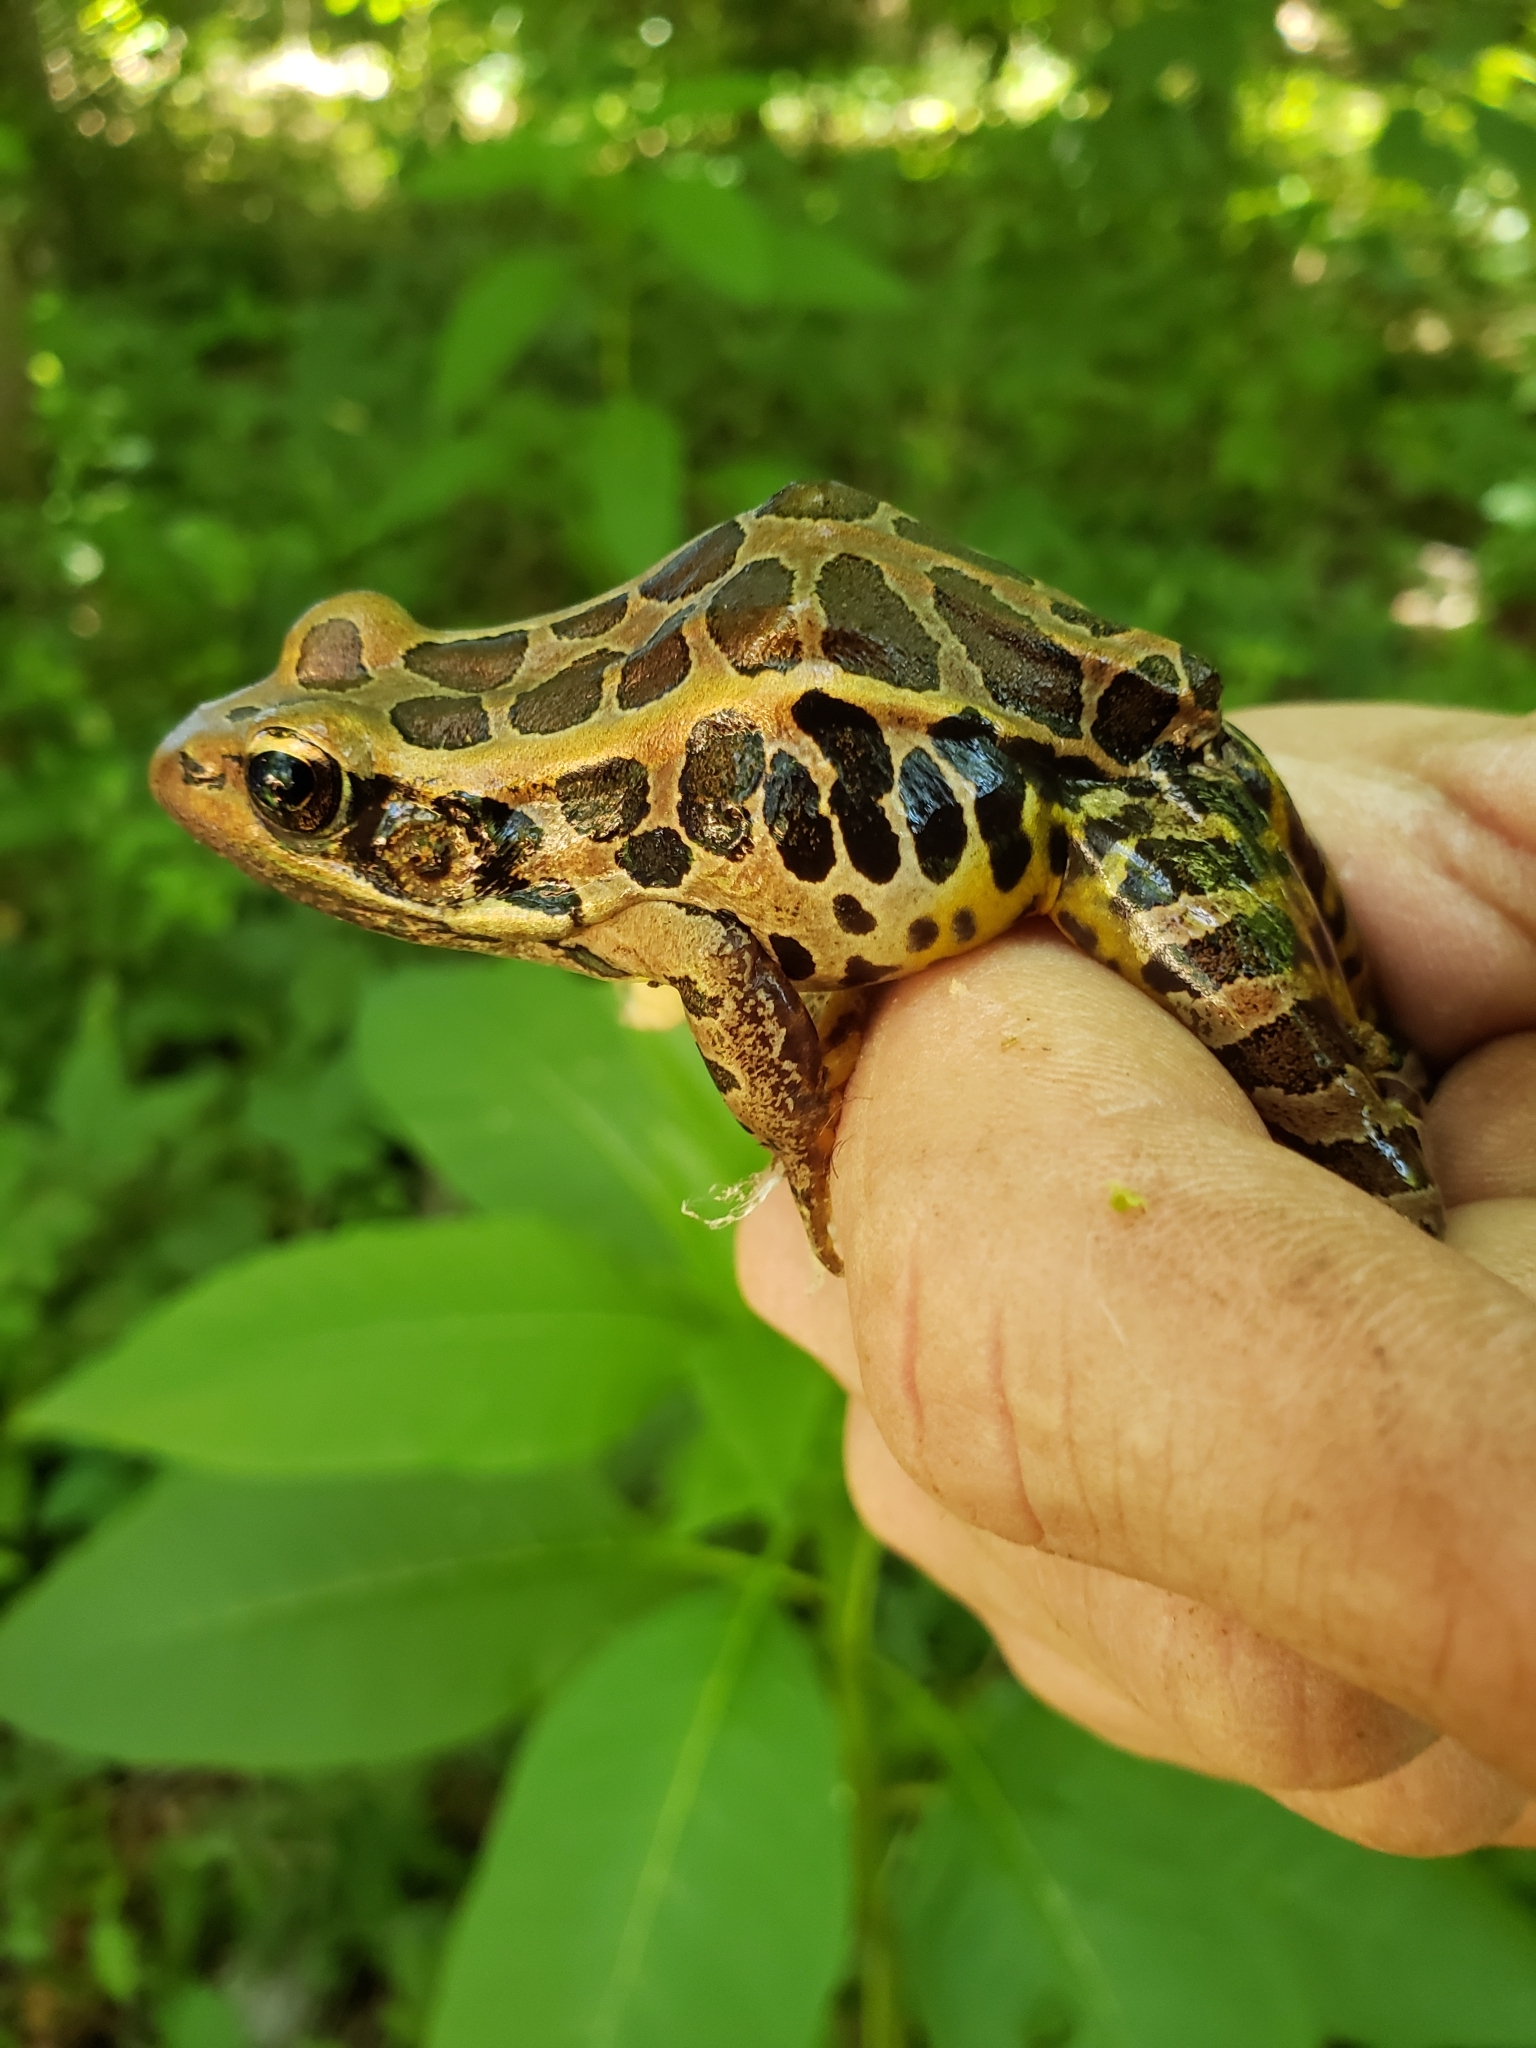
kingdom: Animalia
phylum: Chordata
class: Amphibia
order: Anura
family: Ranidae
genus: Lithobates
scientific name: Lithobates palustris
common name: Pickerel frog
